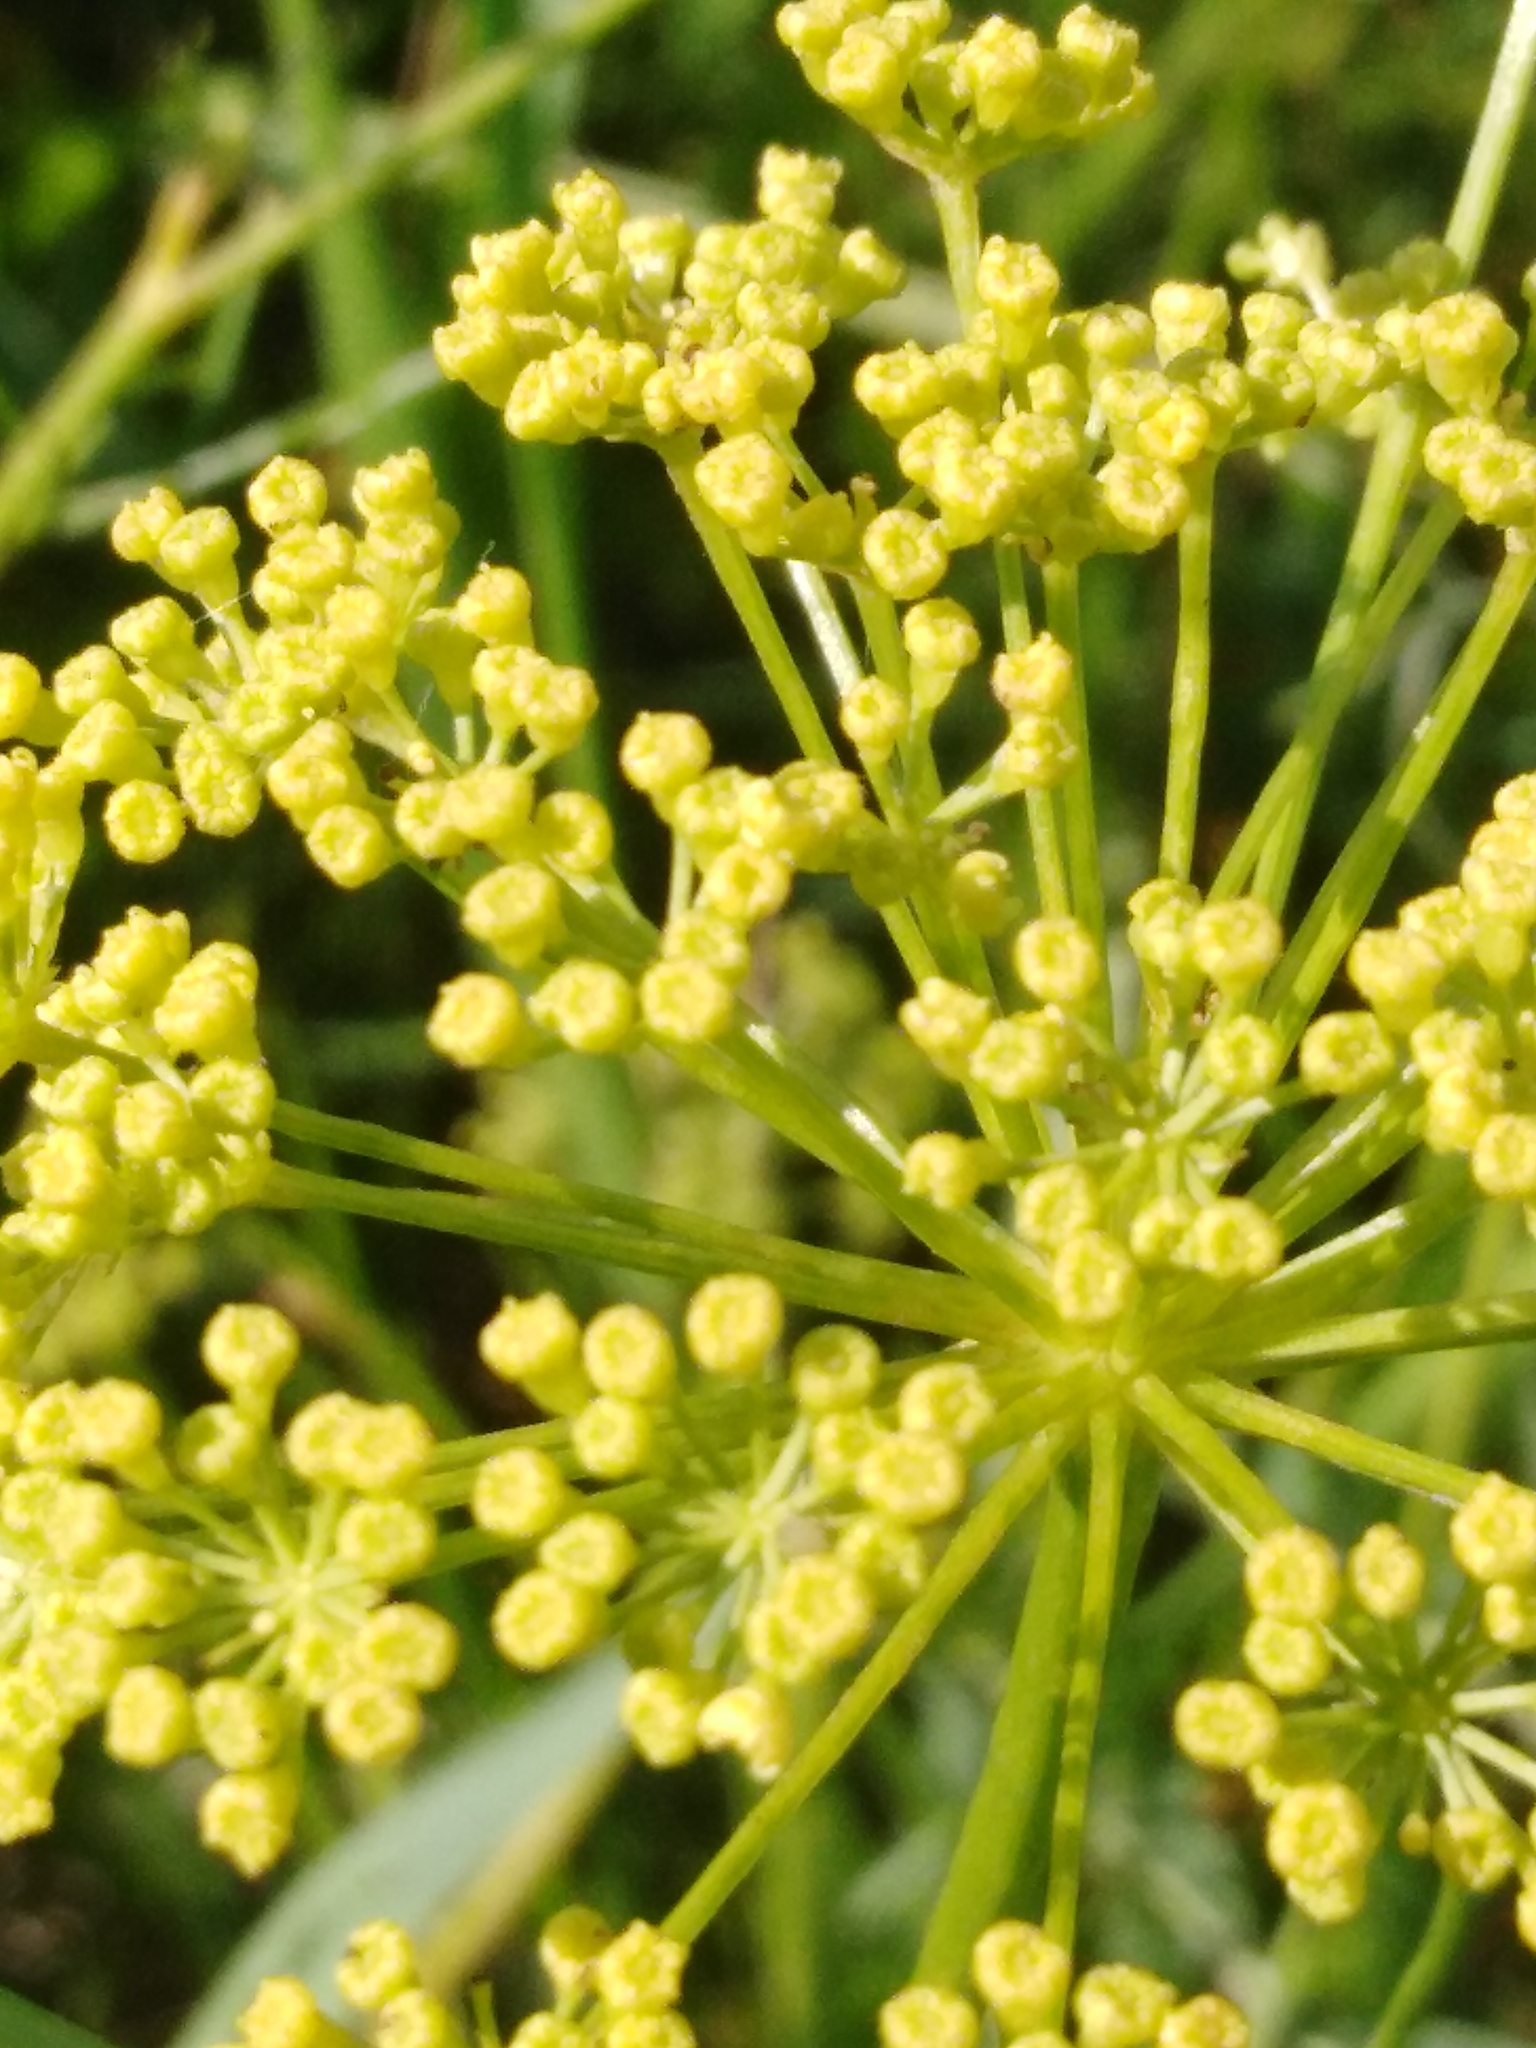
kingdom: Plantae
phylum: Tracheophyta
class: Magnoliopsida
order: Apiales
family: Apiaceae
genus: Silaum
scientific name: Silaum silaus
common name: Pepper-saxifrage
